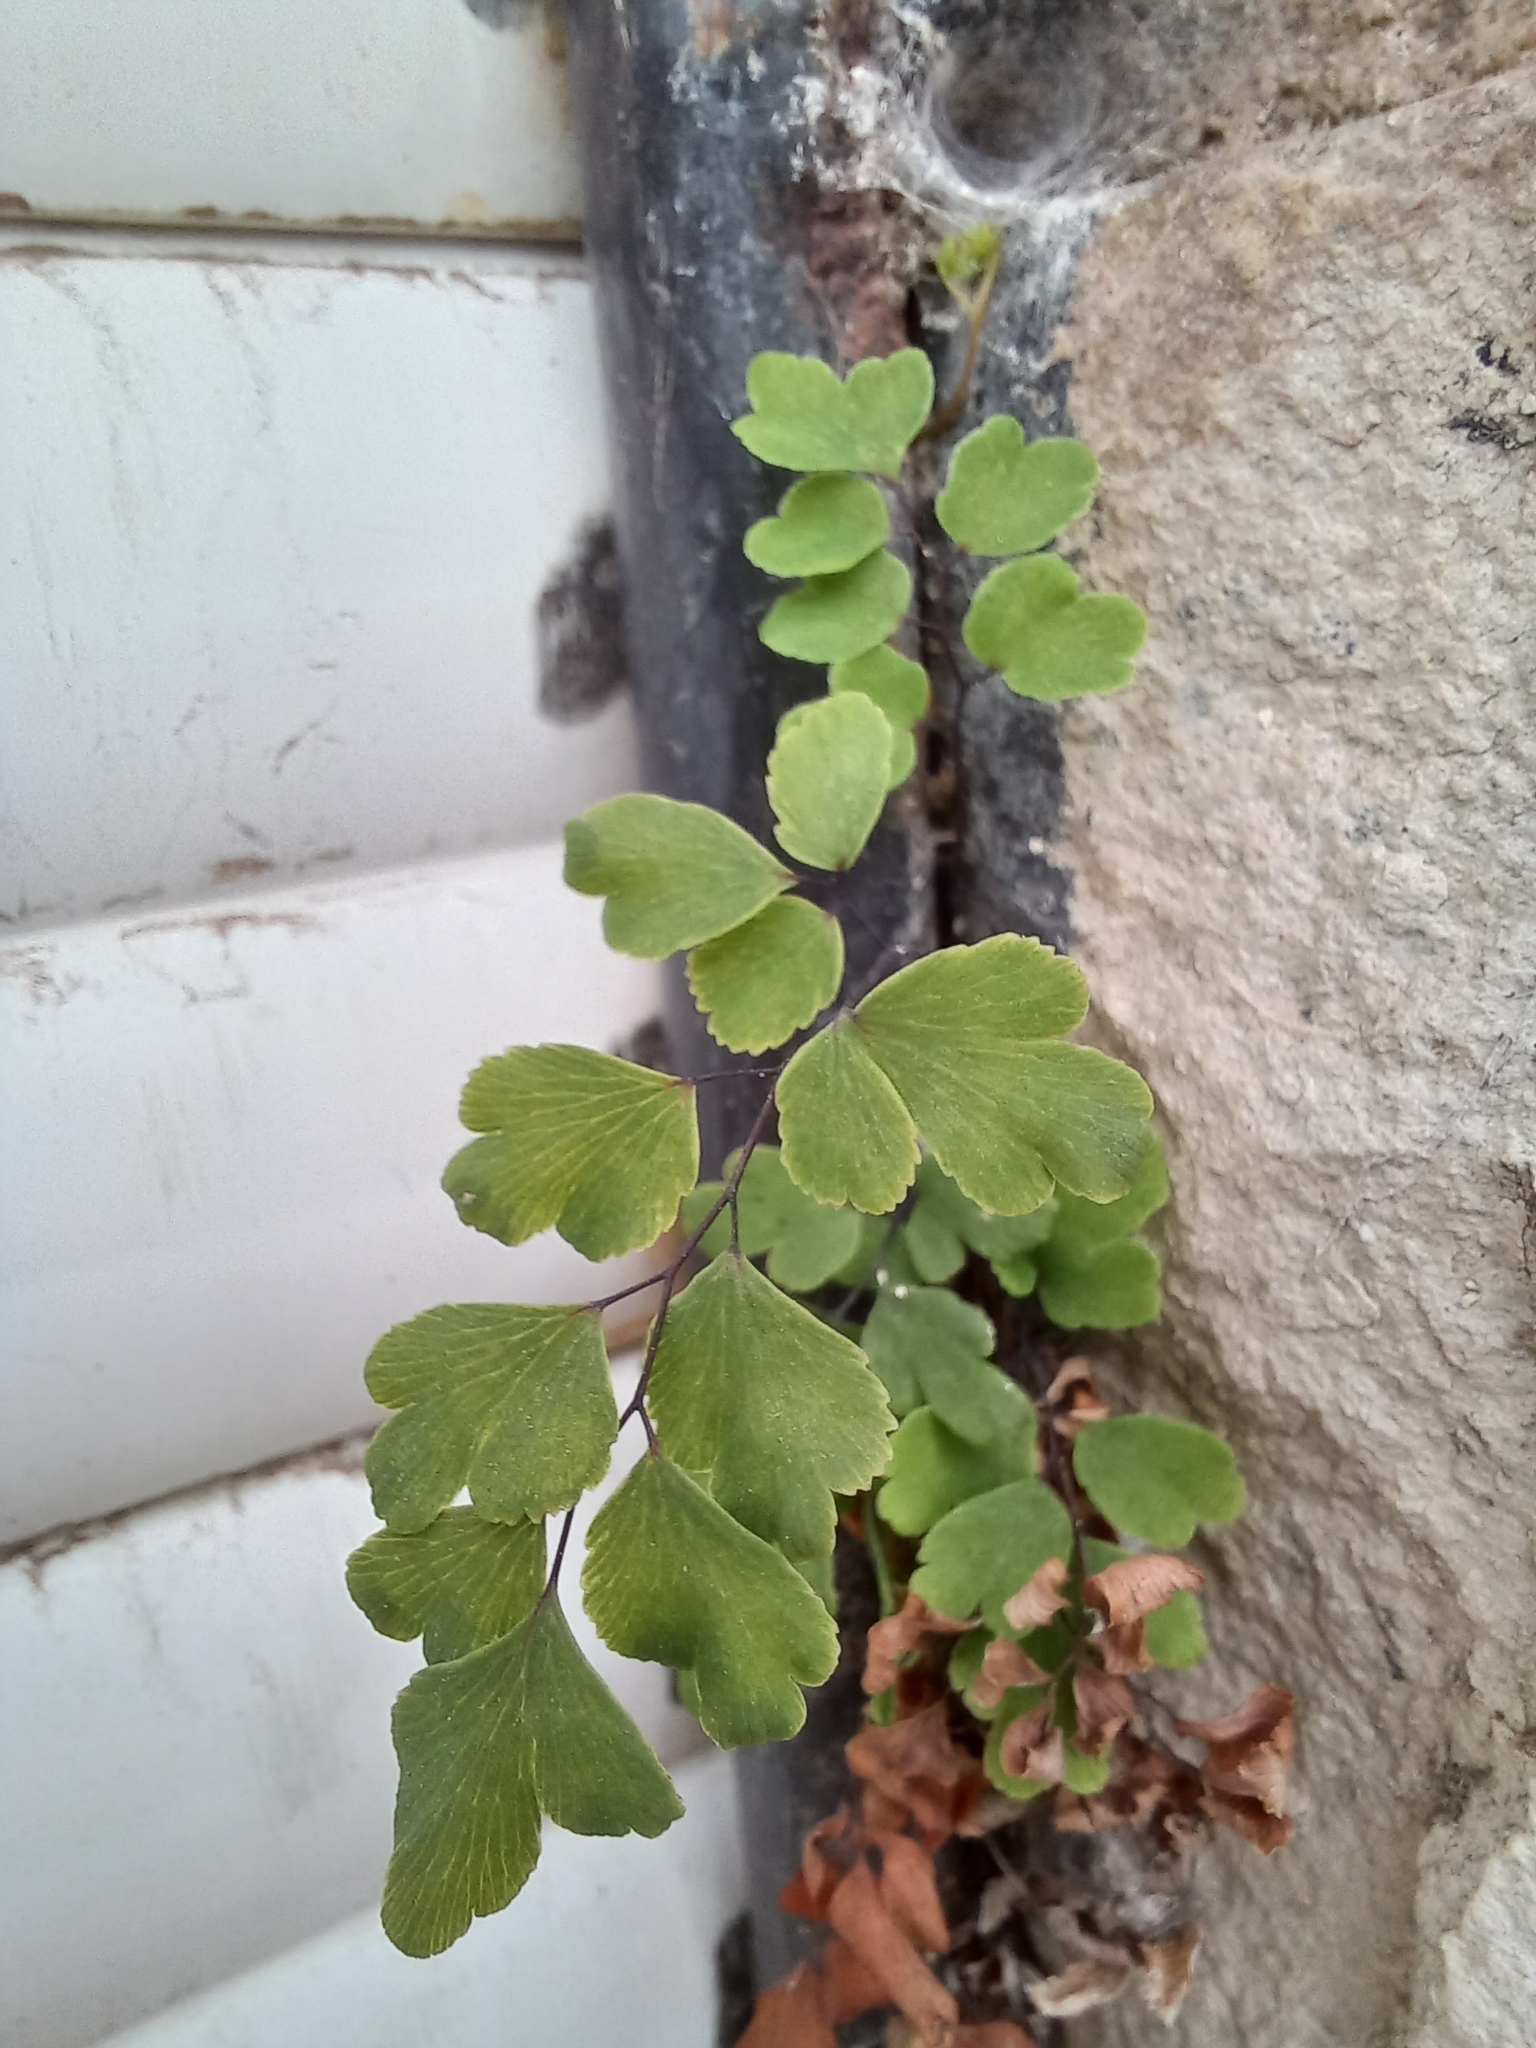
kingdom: Plantae
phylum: Tracheophyta
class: Polypodiopsida
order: Polypodiales
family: Pteridaceae
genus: Adiantum
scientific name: Adiantum capillus-veneris
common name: Maidenhair fern
